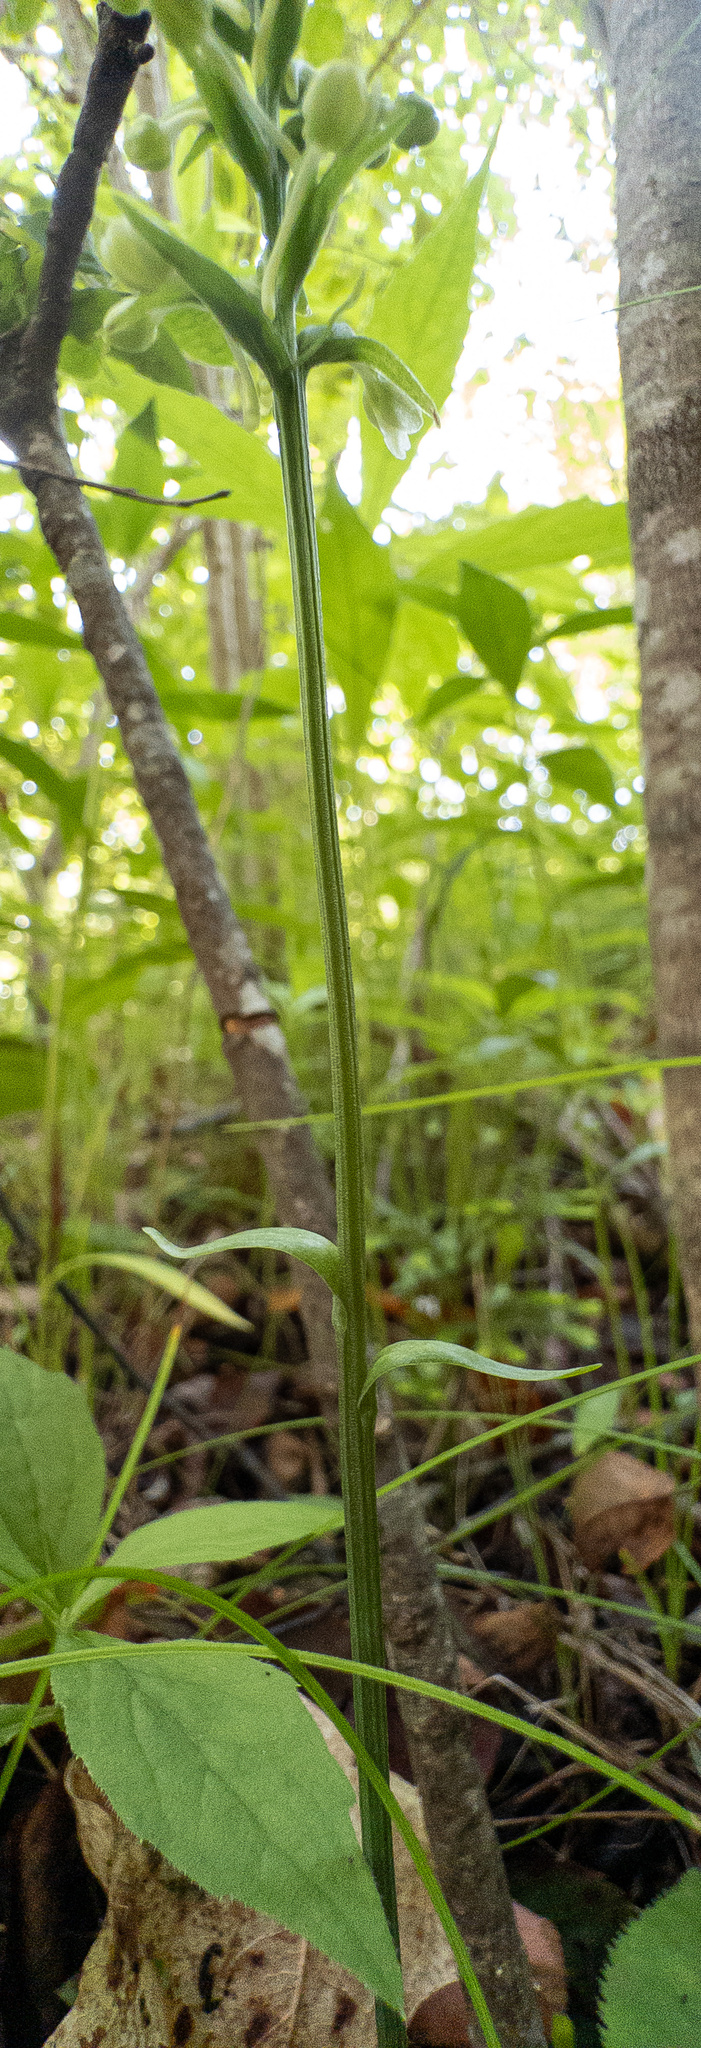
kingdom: Plantae
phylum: Tracheophyta
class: Liliopsida
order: Asparagales
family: Orchidaceae
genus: Platanthera
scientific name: Platanthera clavellata
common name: Club-spur orchid
